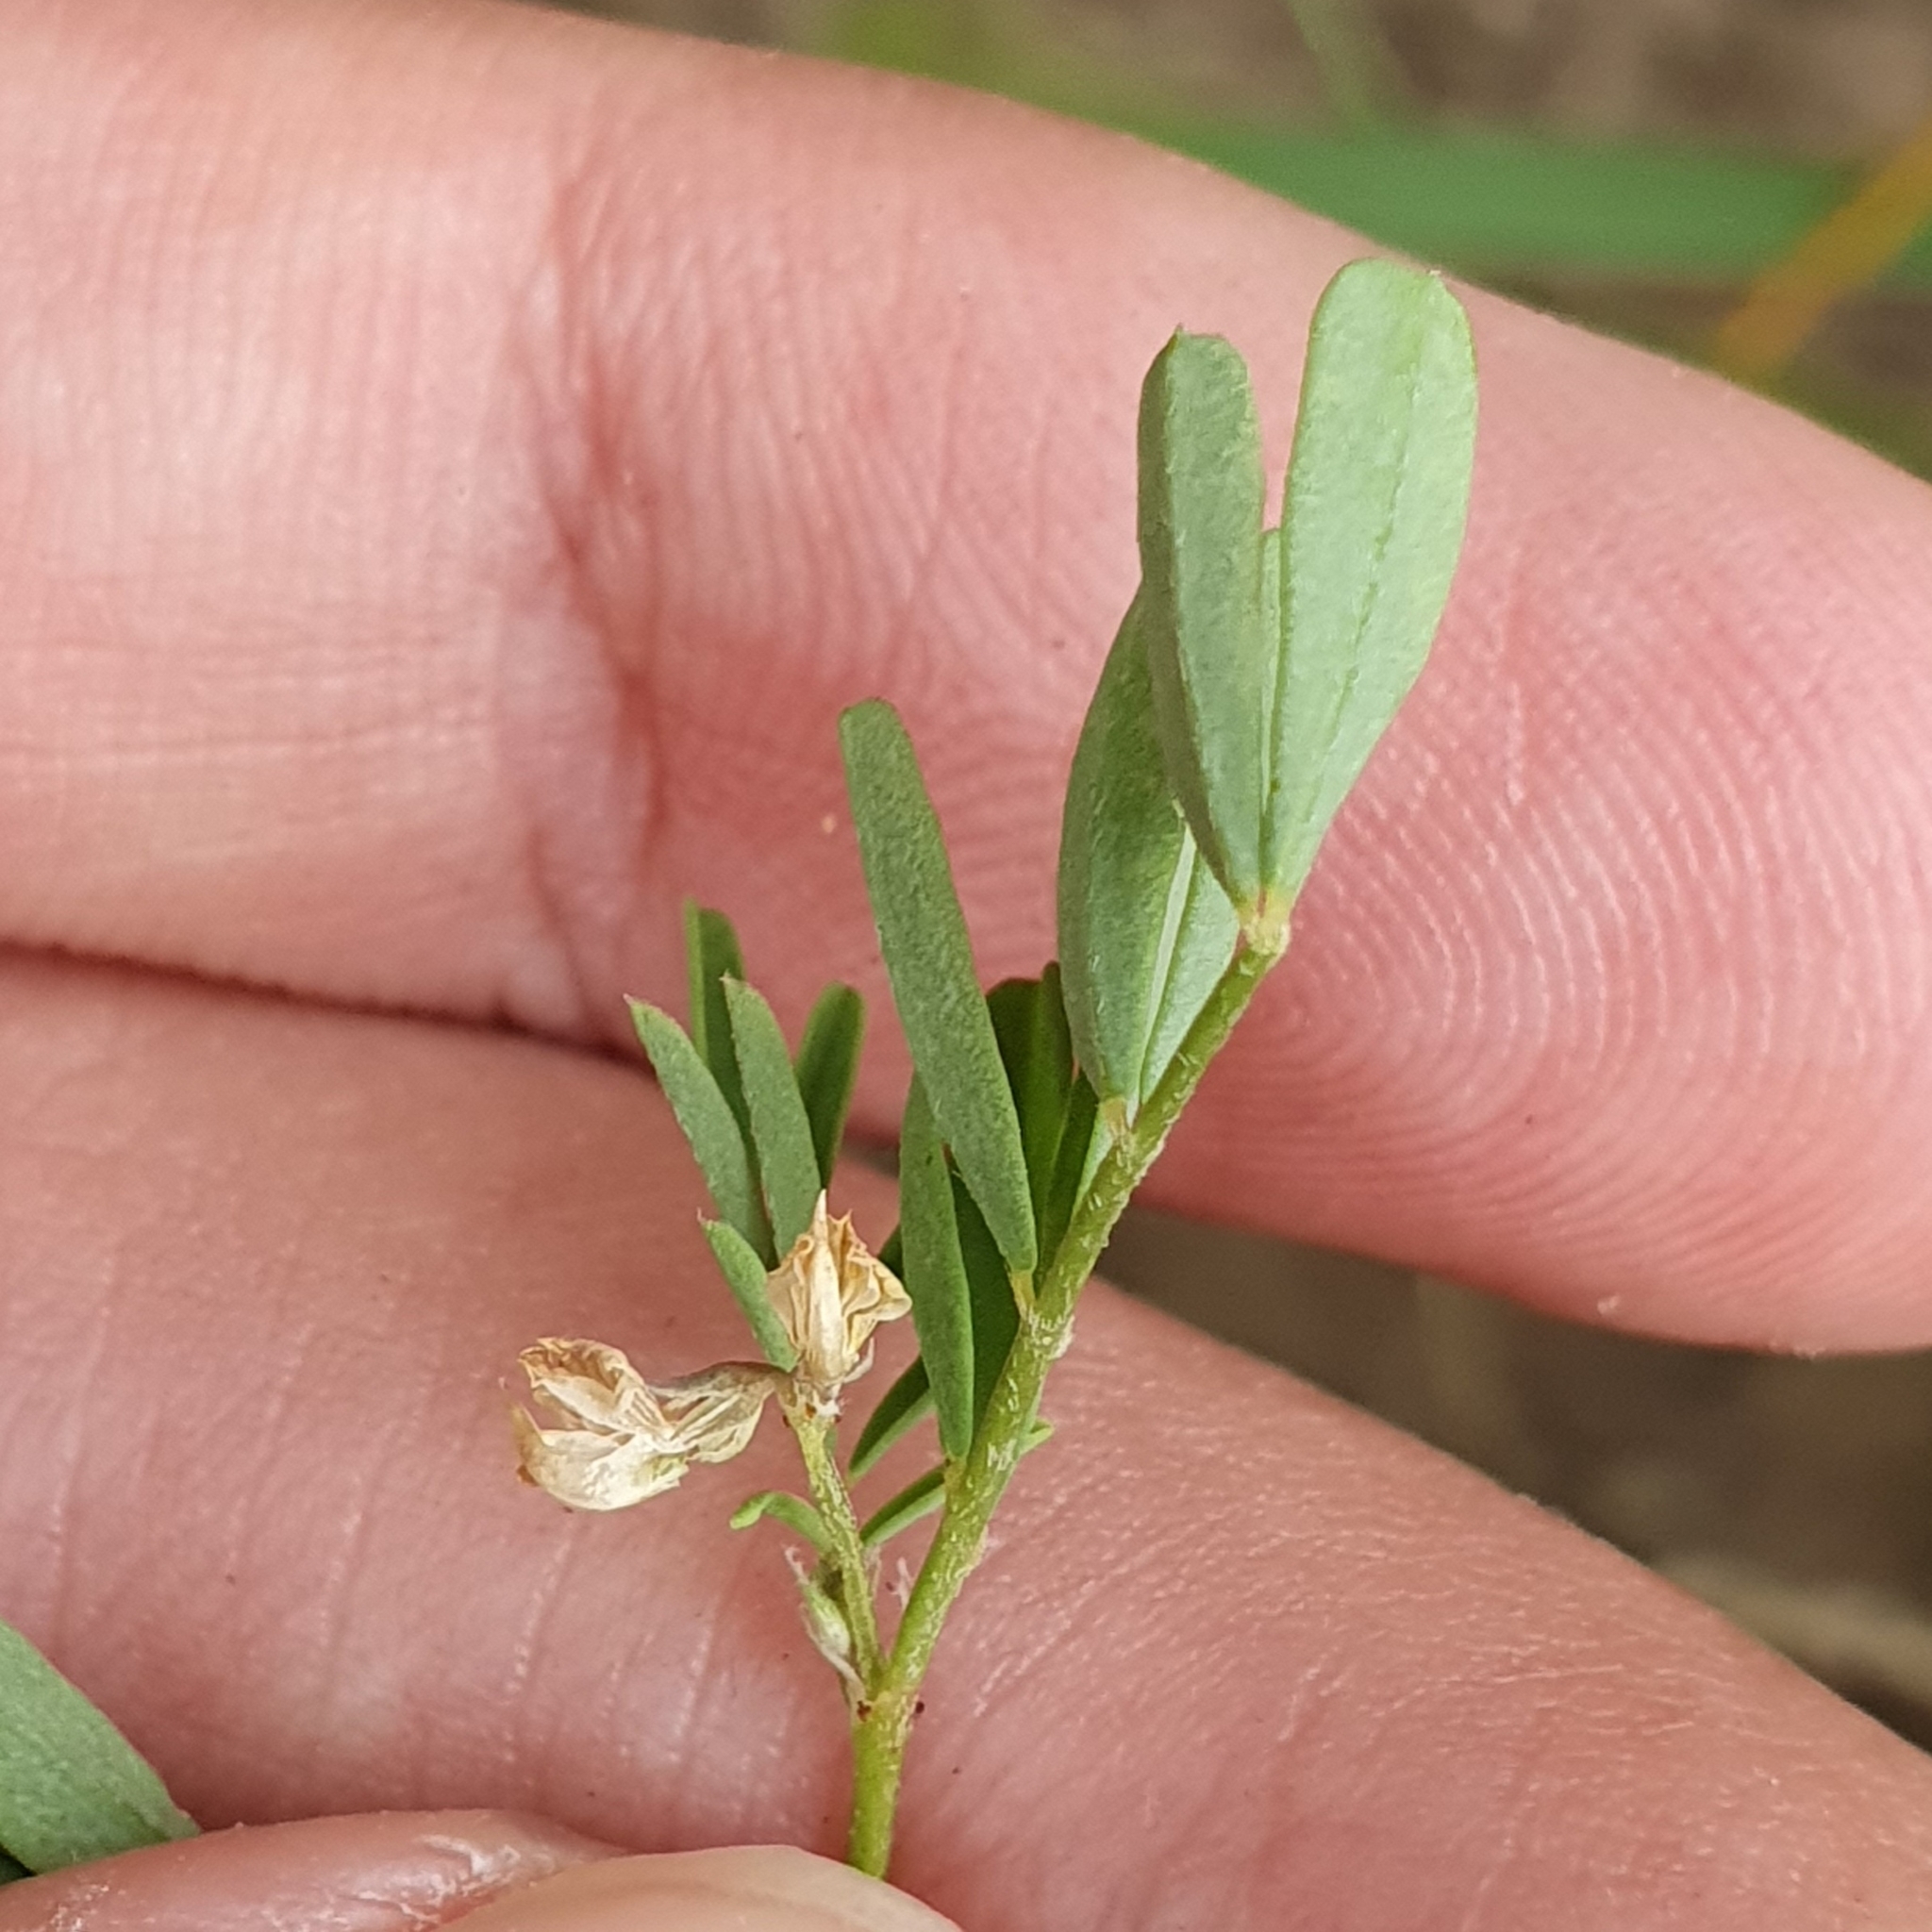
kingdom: Plantae
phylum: Tracheophyta
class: Magnoliopsida
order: Fabales
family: Fabaceae
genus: Hippocrepis
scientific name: Hippocrepis ciliata
